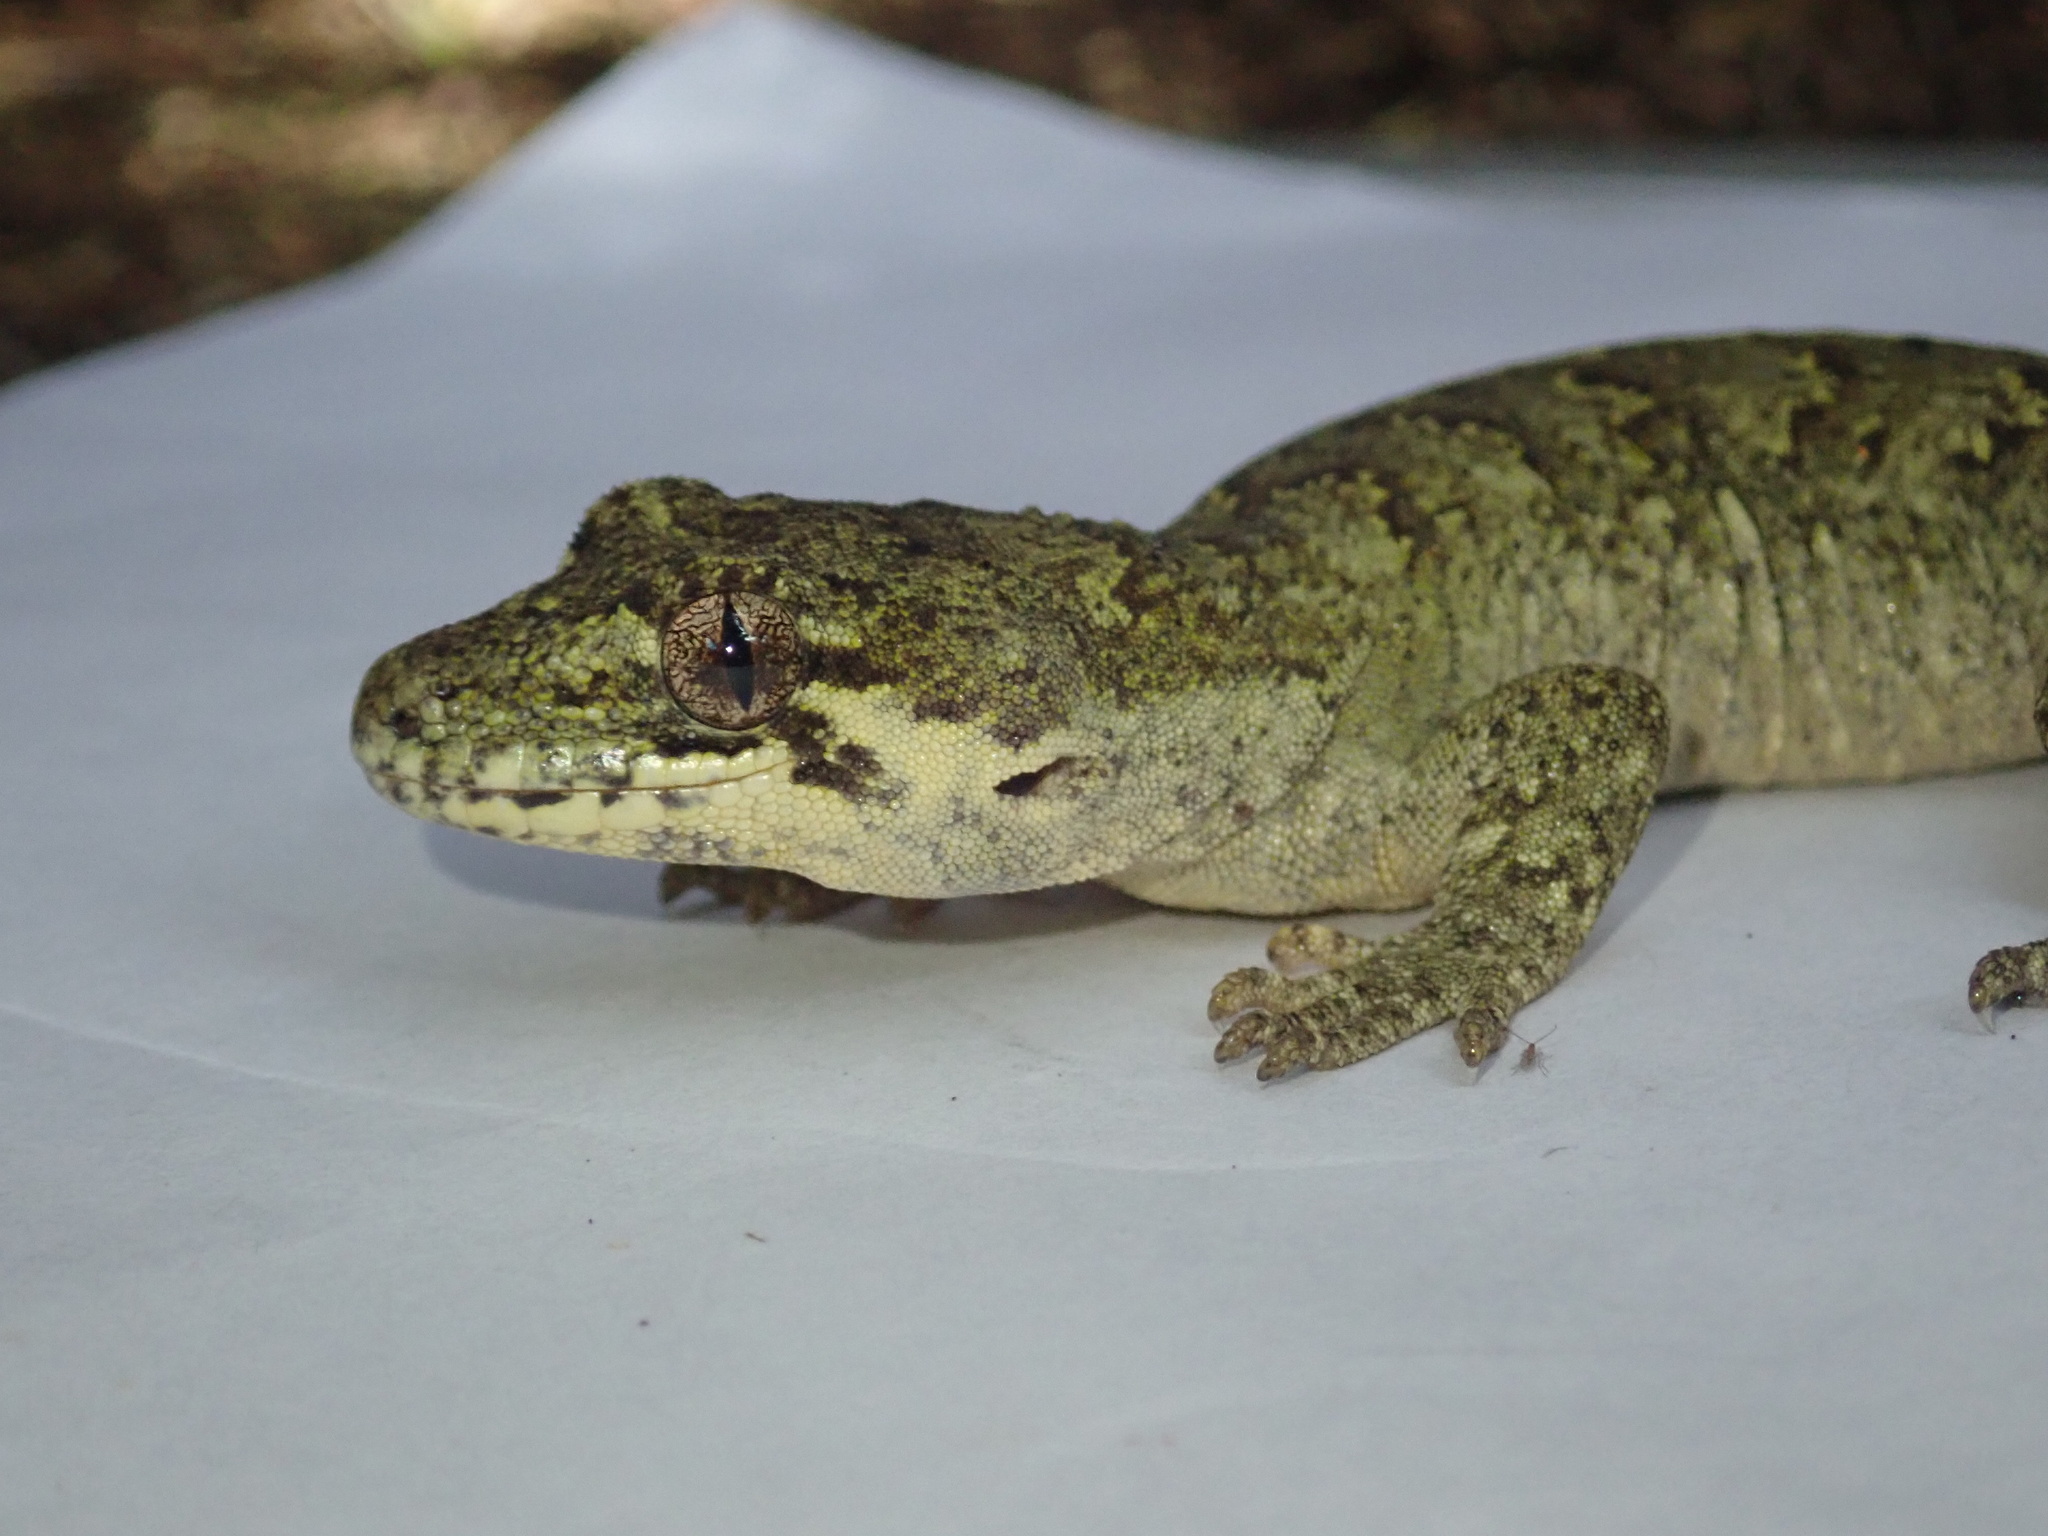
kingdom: Animalia
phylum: Chordata
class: Squamata
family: Diplodactylidae
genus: Mokopirirakau
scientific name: Mokopirirakau
